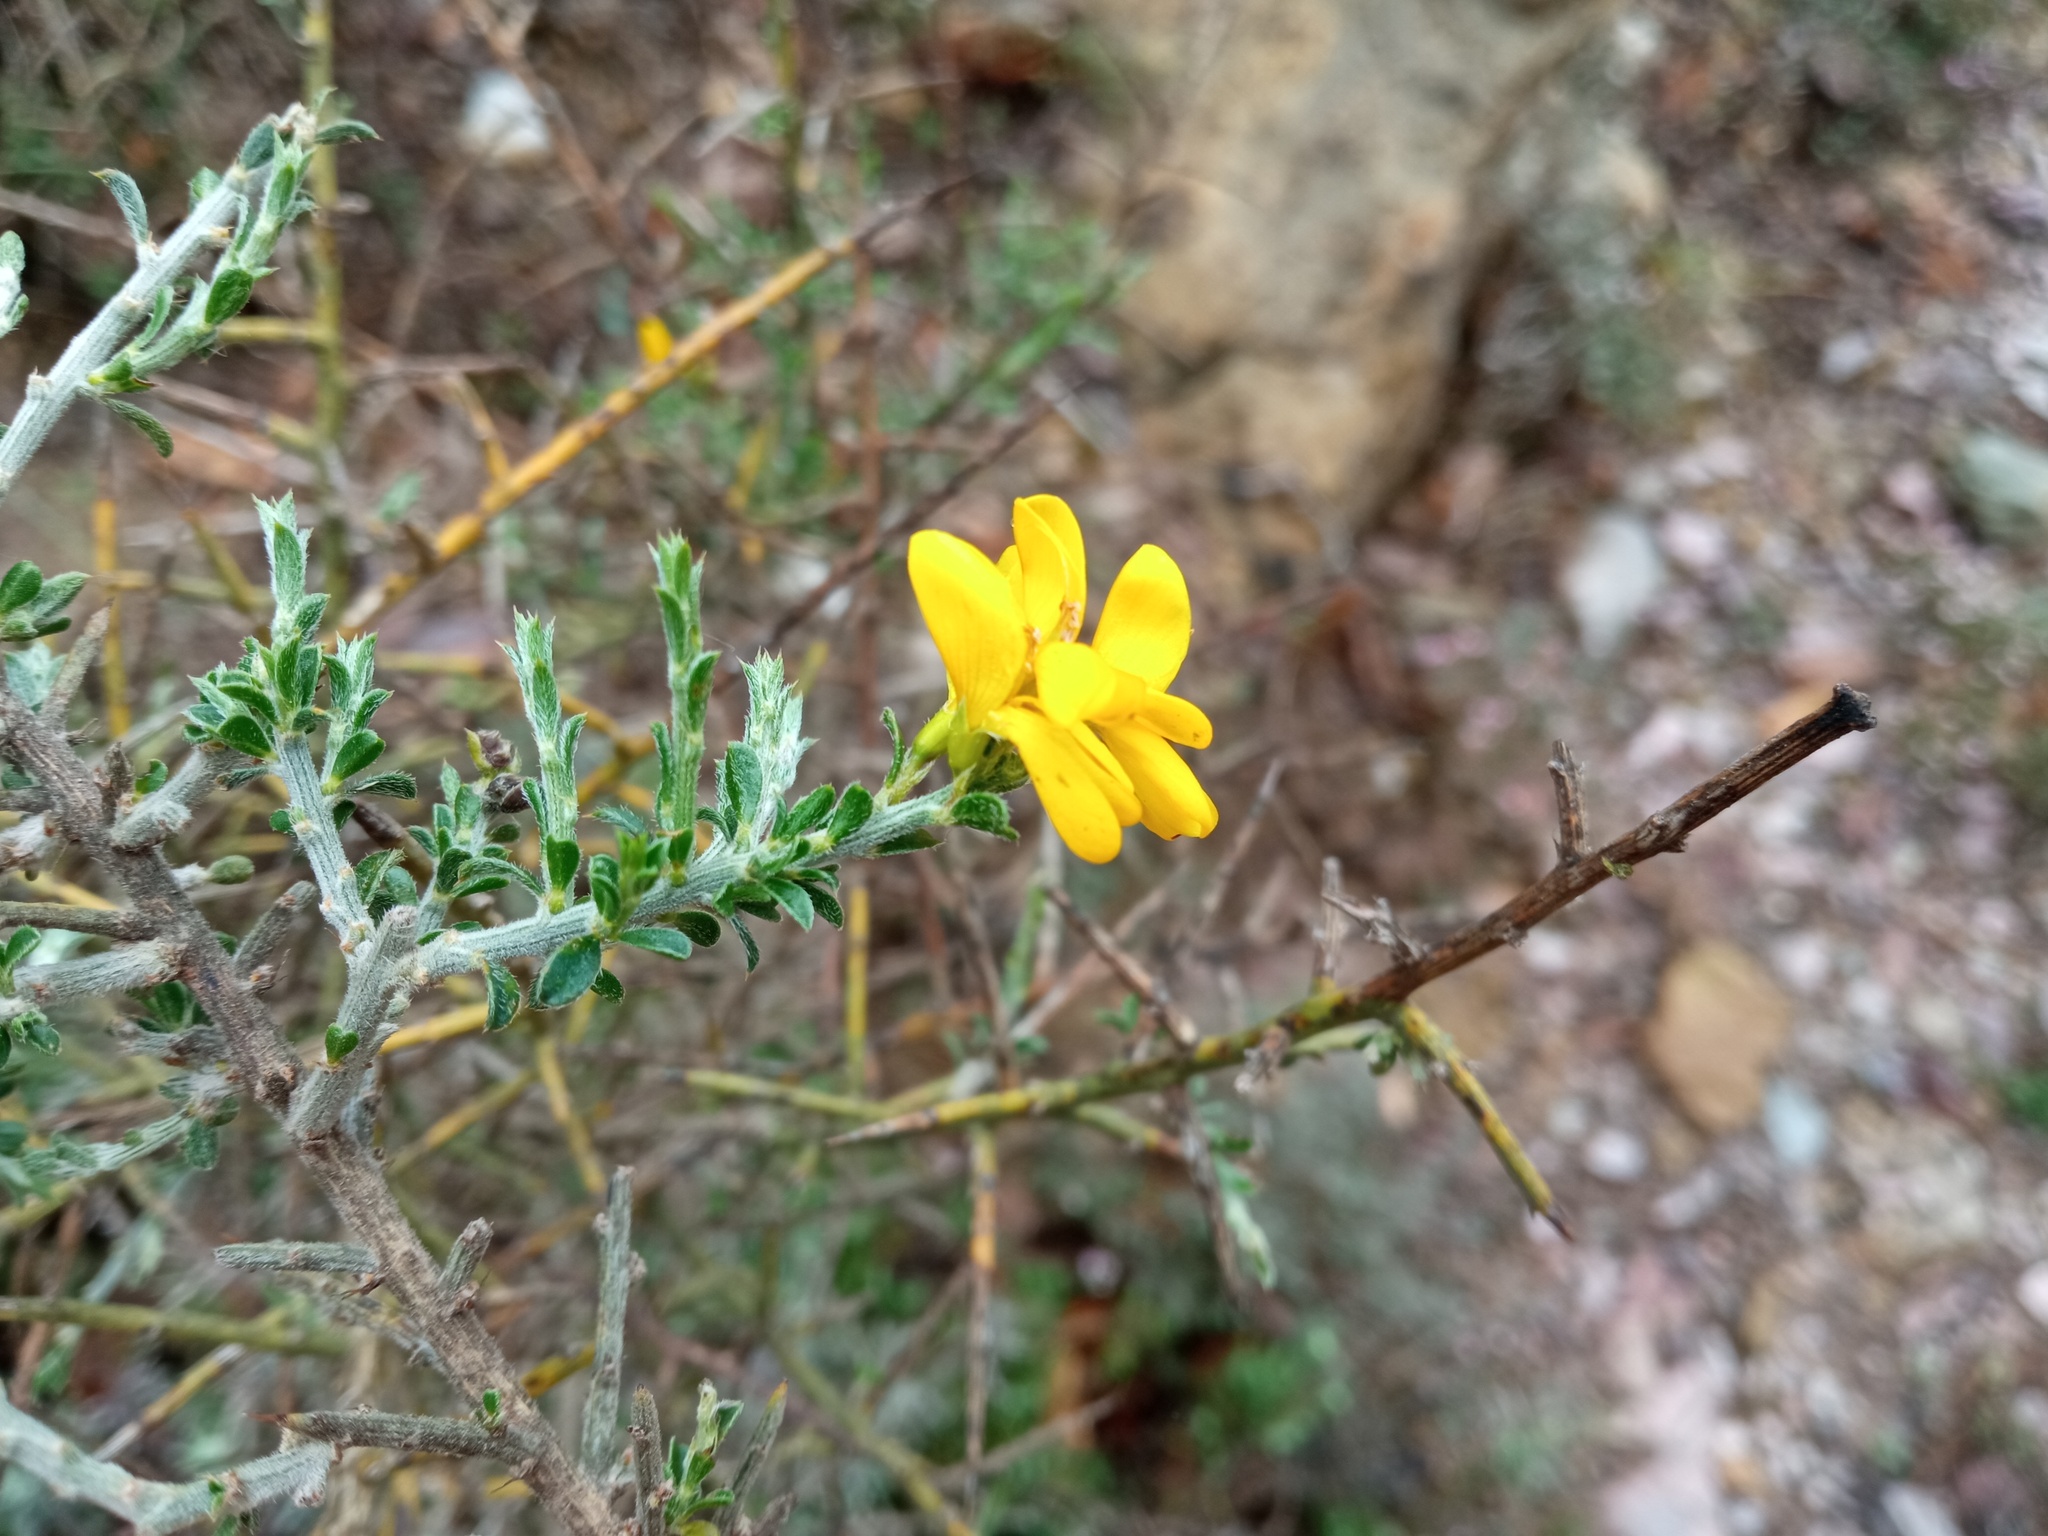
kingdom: Plantae
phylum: Tracheophyta
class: Magnoliopsida
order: Fabales
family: Fabaceae
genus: Genista
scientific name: Genista scorpius
